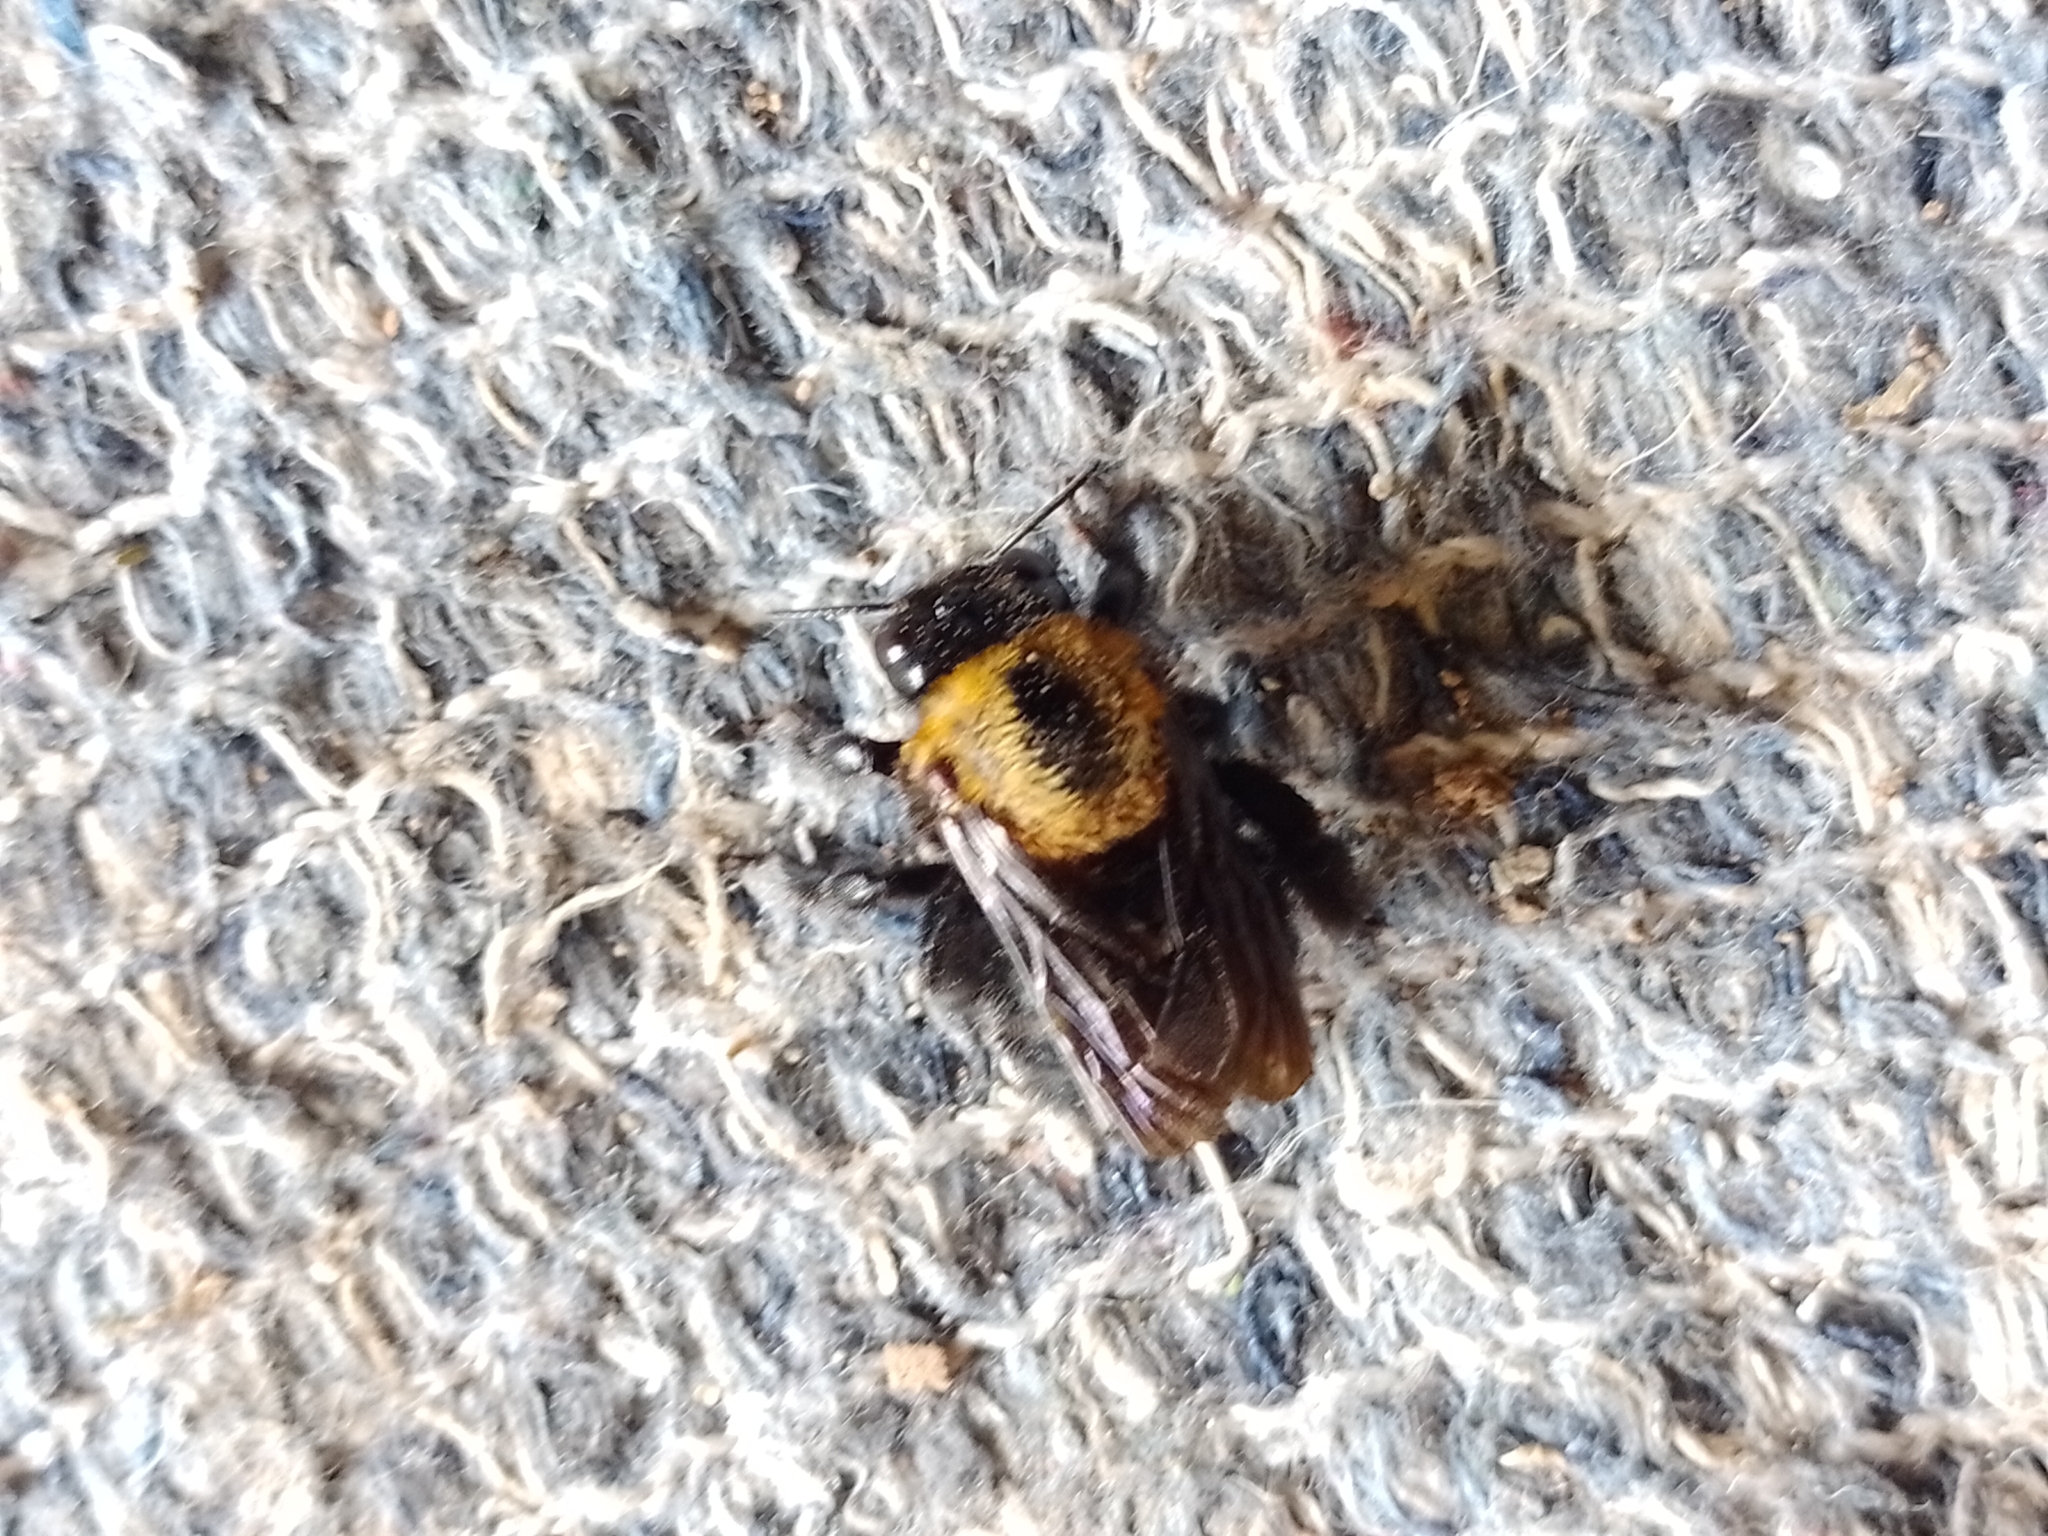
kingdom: Animalia
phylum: Arthropoda
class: Insecta
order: Hymenoptera
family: Apidae
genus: Xylocopa
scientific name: Xylocopa eximia
